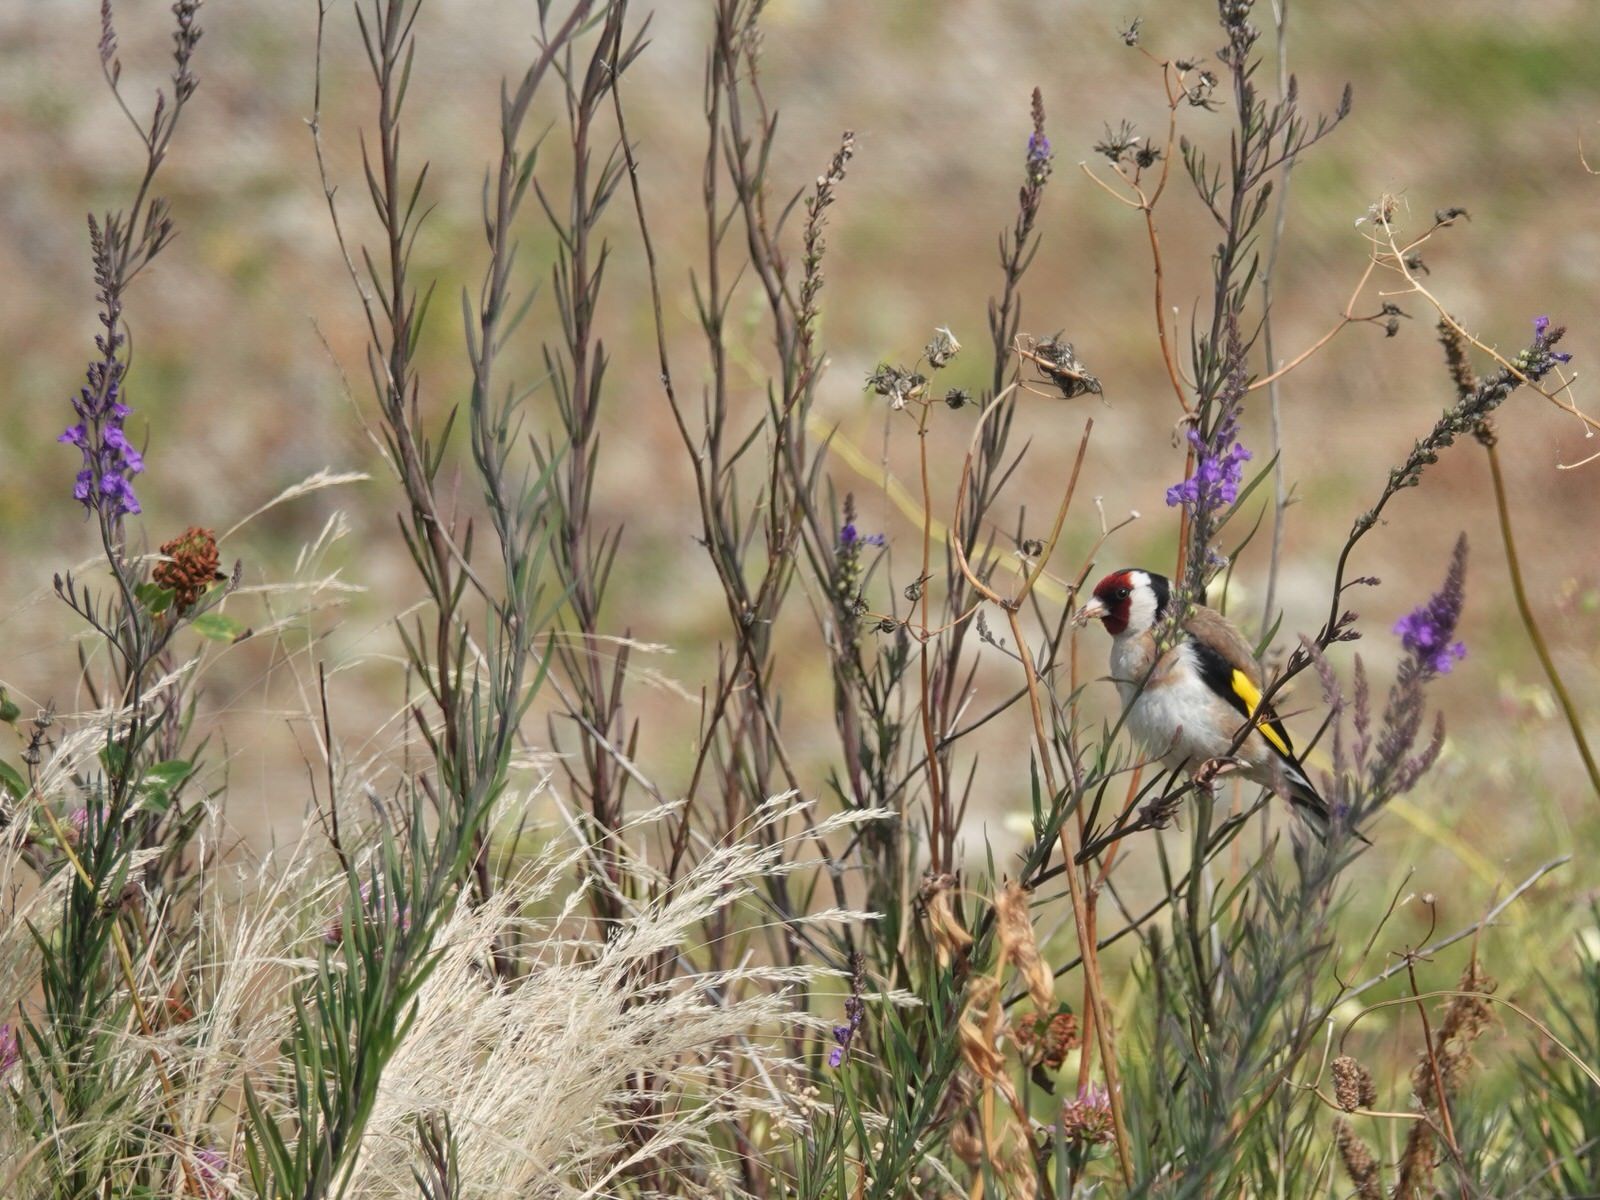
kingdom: Animalia
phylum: Chordata
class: Aves
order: Passeriformes
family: Fringillidae
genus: Carduelis
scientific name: Carduelis carduelis
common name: European goldfinch
